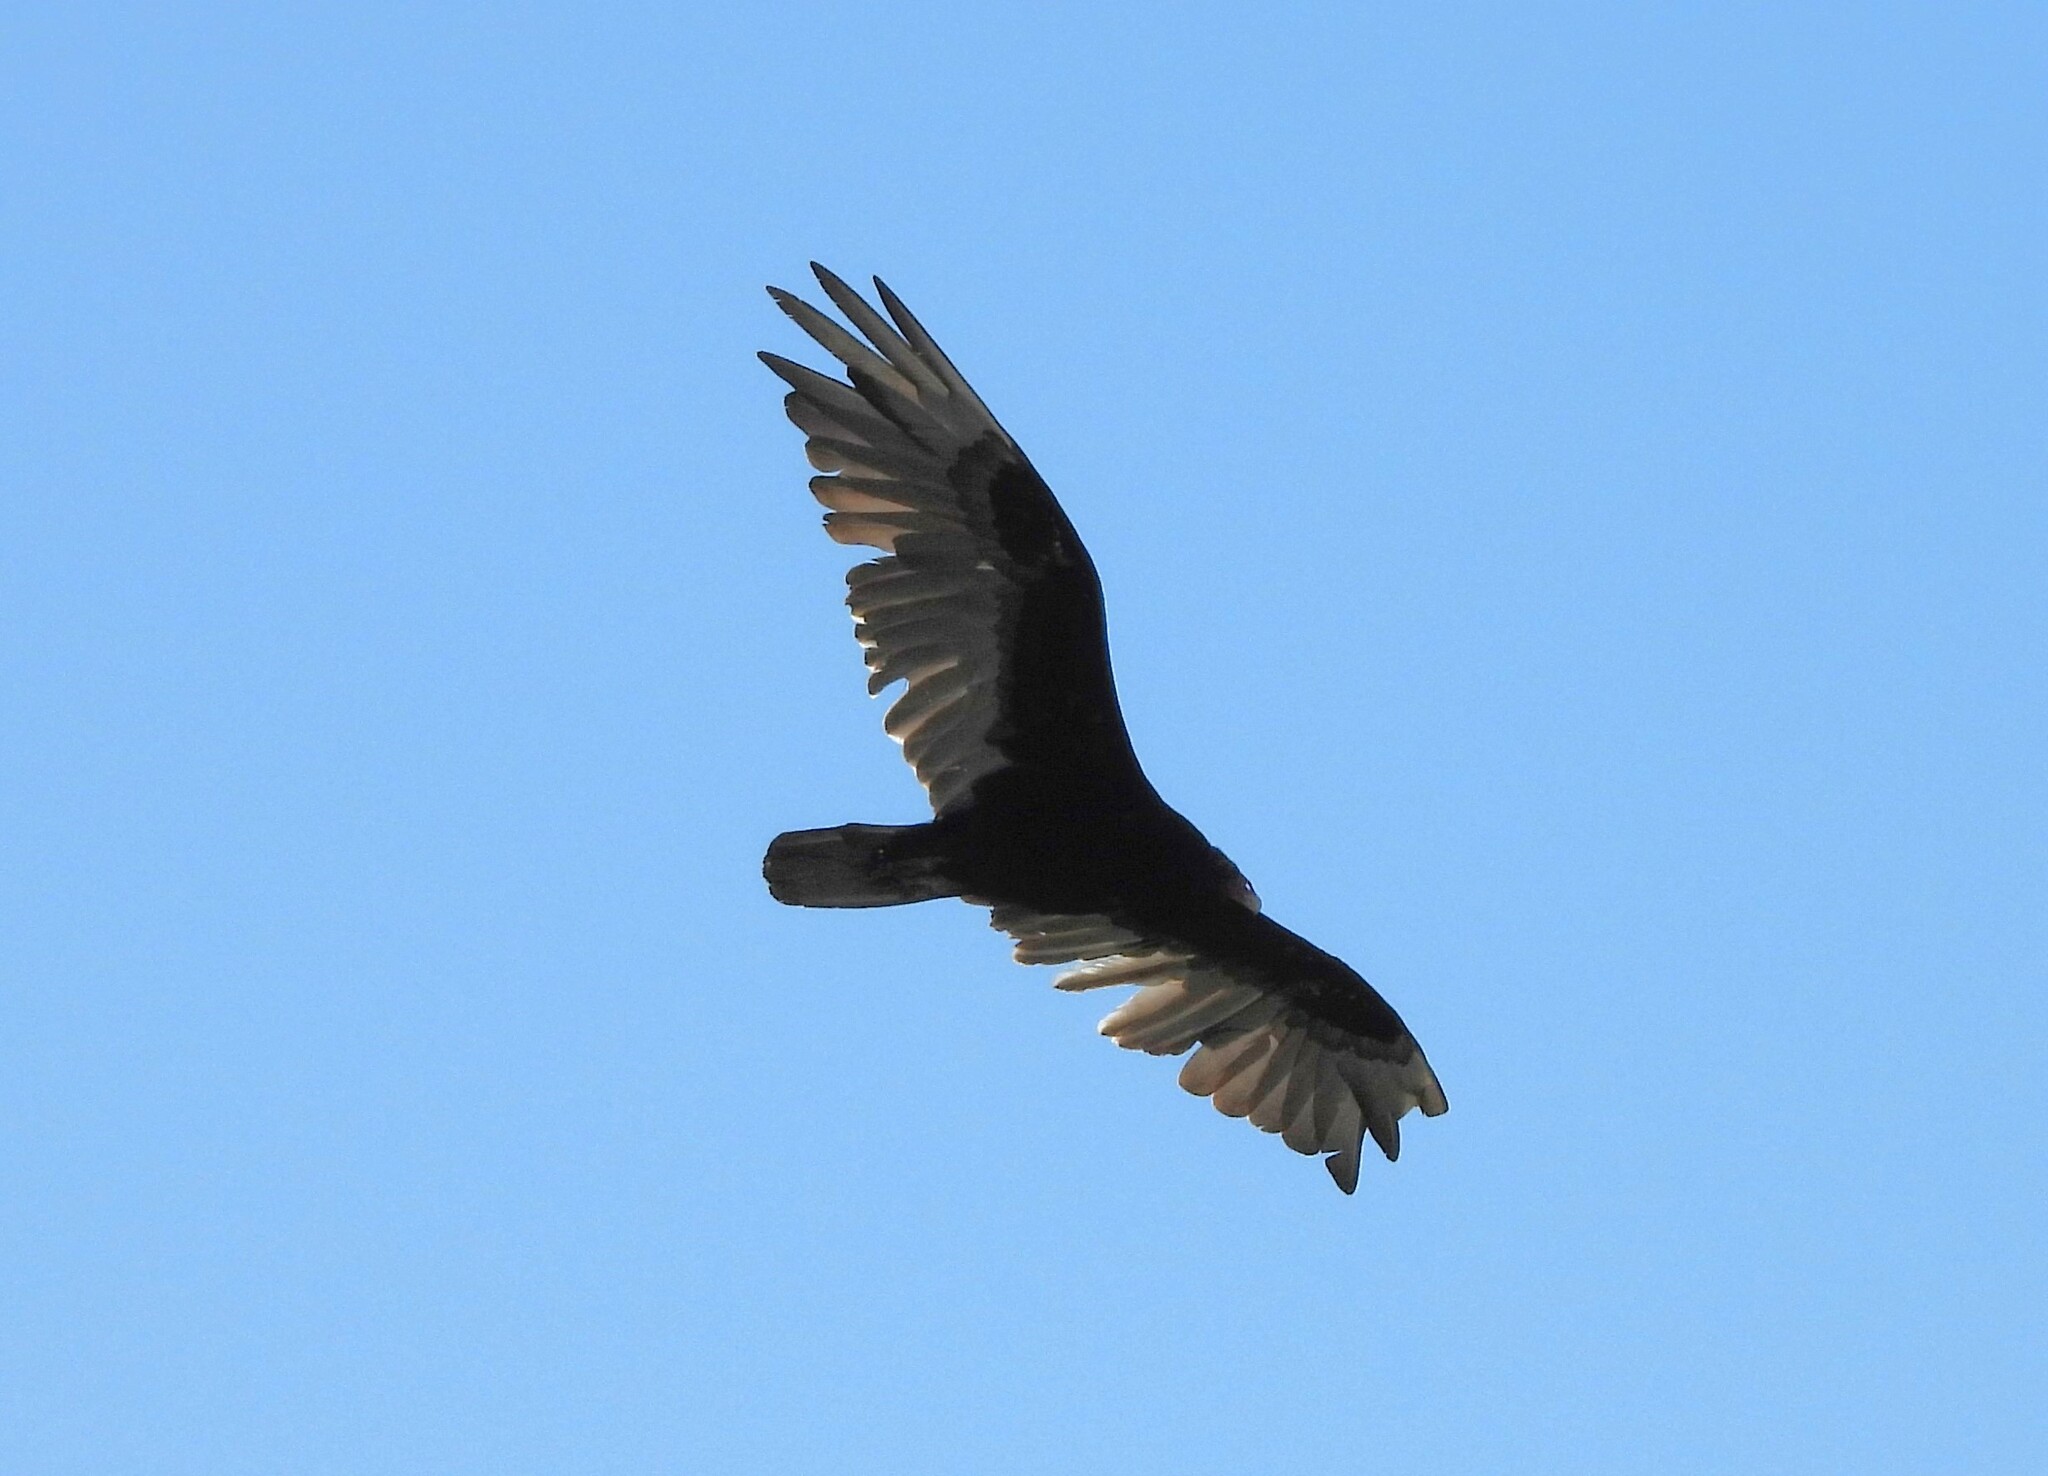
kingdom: Animalia
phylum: Chordata
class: Aves
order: Accipitriformes
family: Cathartidae
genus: Cathartes
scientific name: Cathartes aura
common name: Turkey vulture
